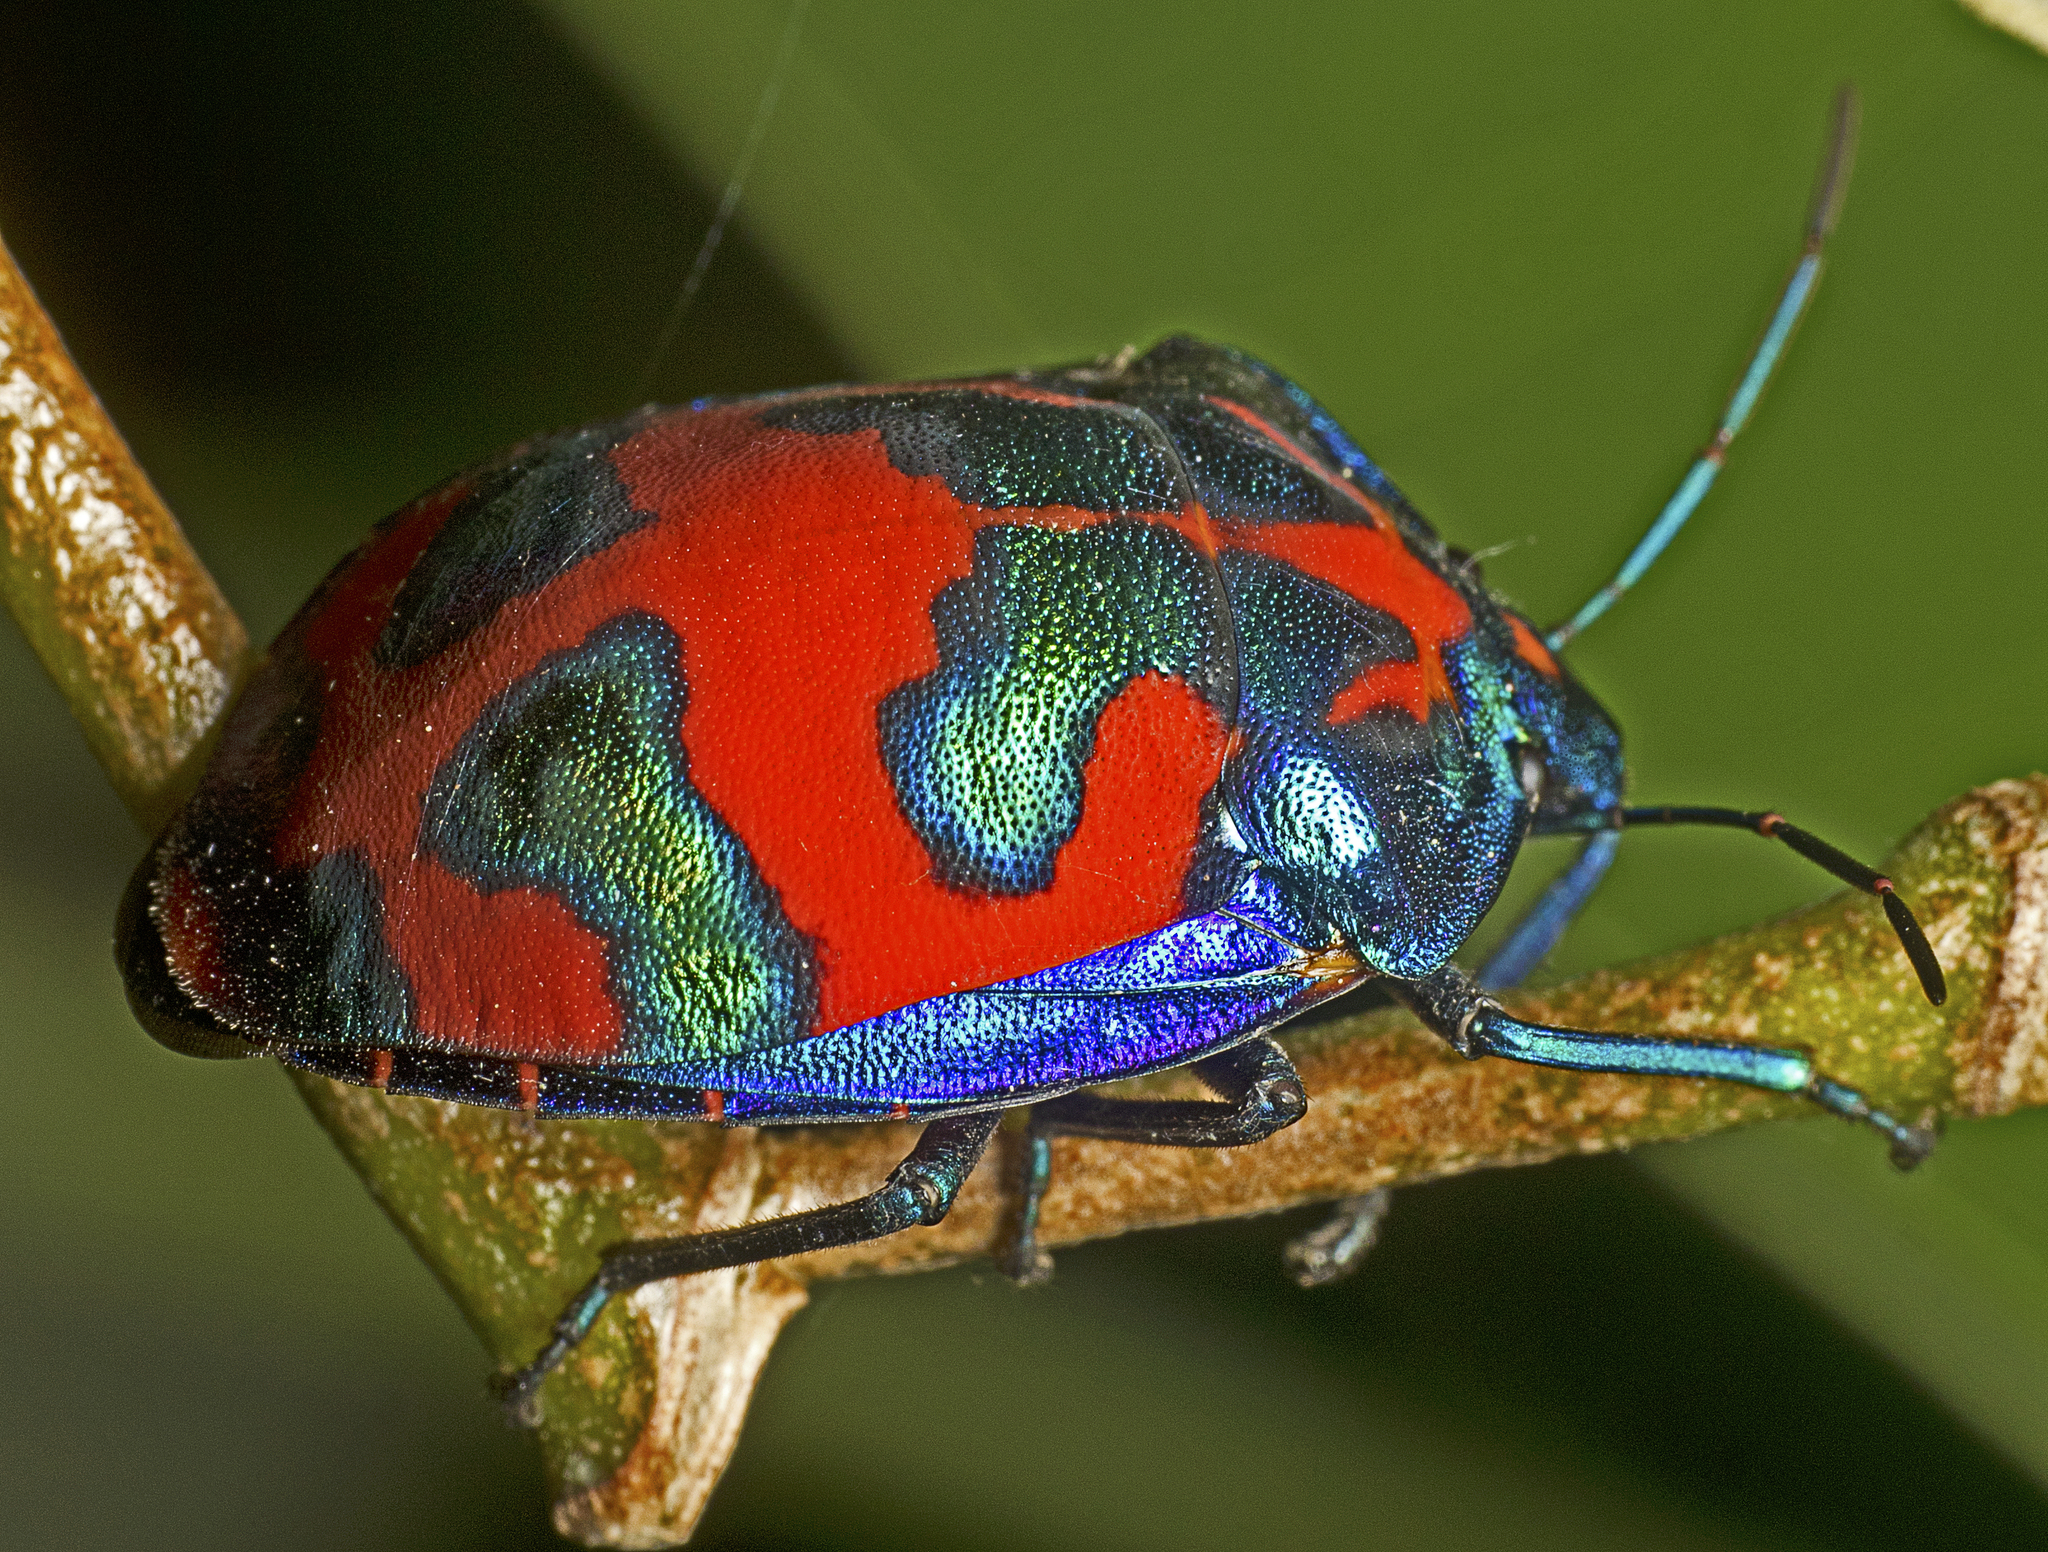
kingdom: Animalia
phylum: Arthropoda
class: Insecta
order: Hemiptera
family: Scutelleridae
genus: Tectocoris
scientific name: Tectocoris diophthalmus
